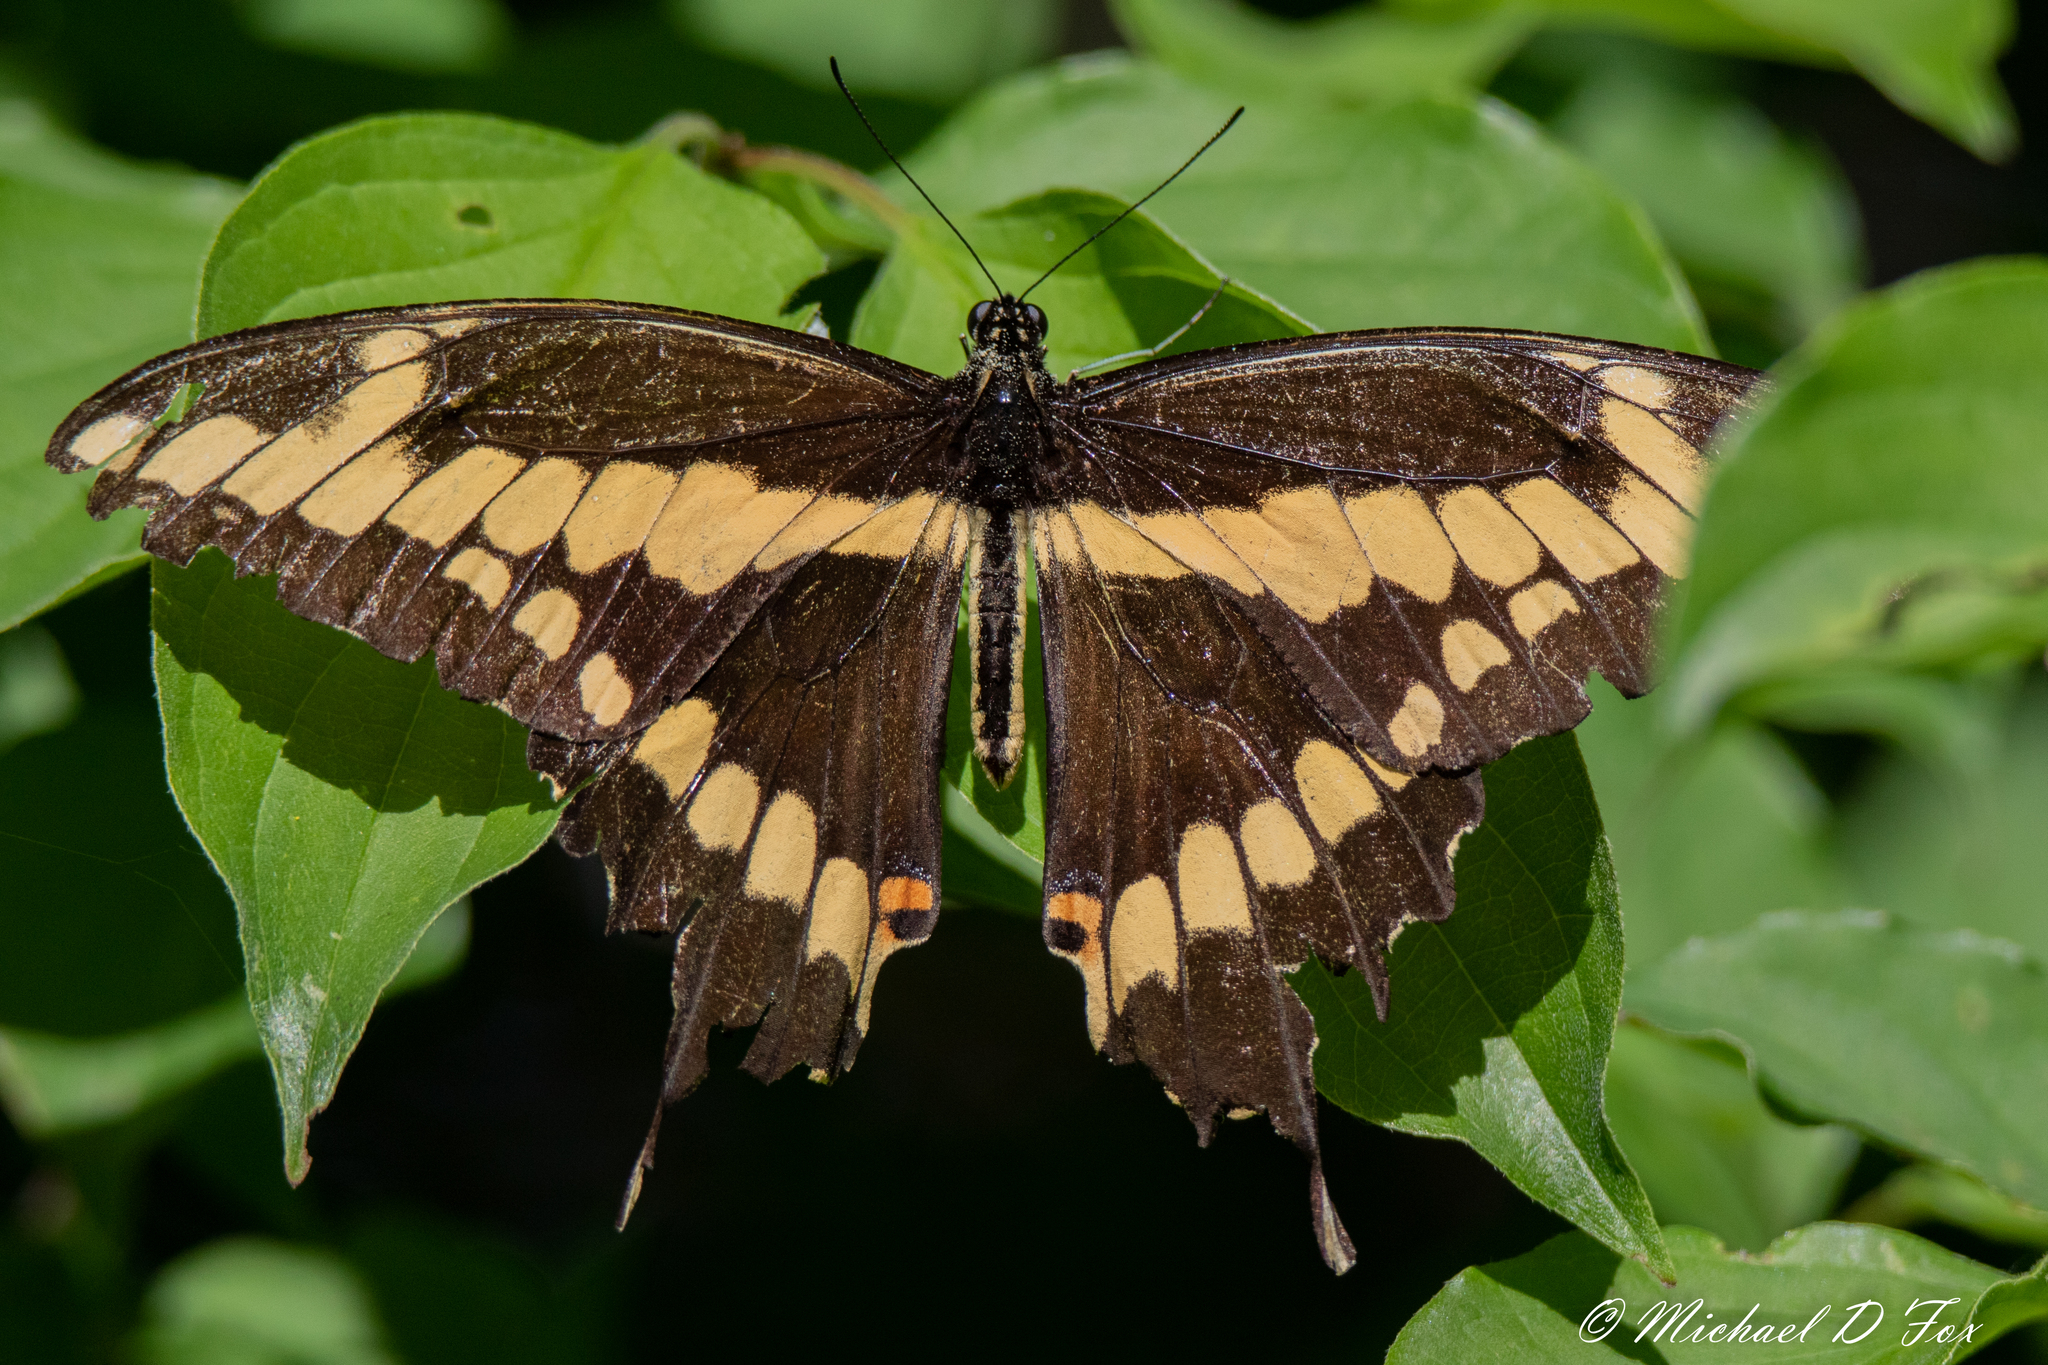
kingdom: Animalia
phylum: Arthropoda
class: Insecta
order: Lepidoptera
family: Papilionidae
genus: Papilio
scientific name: Papilio cresphontes
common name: Giant swallowtail
